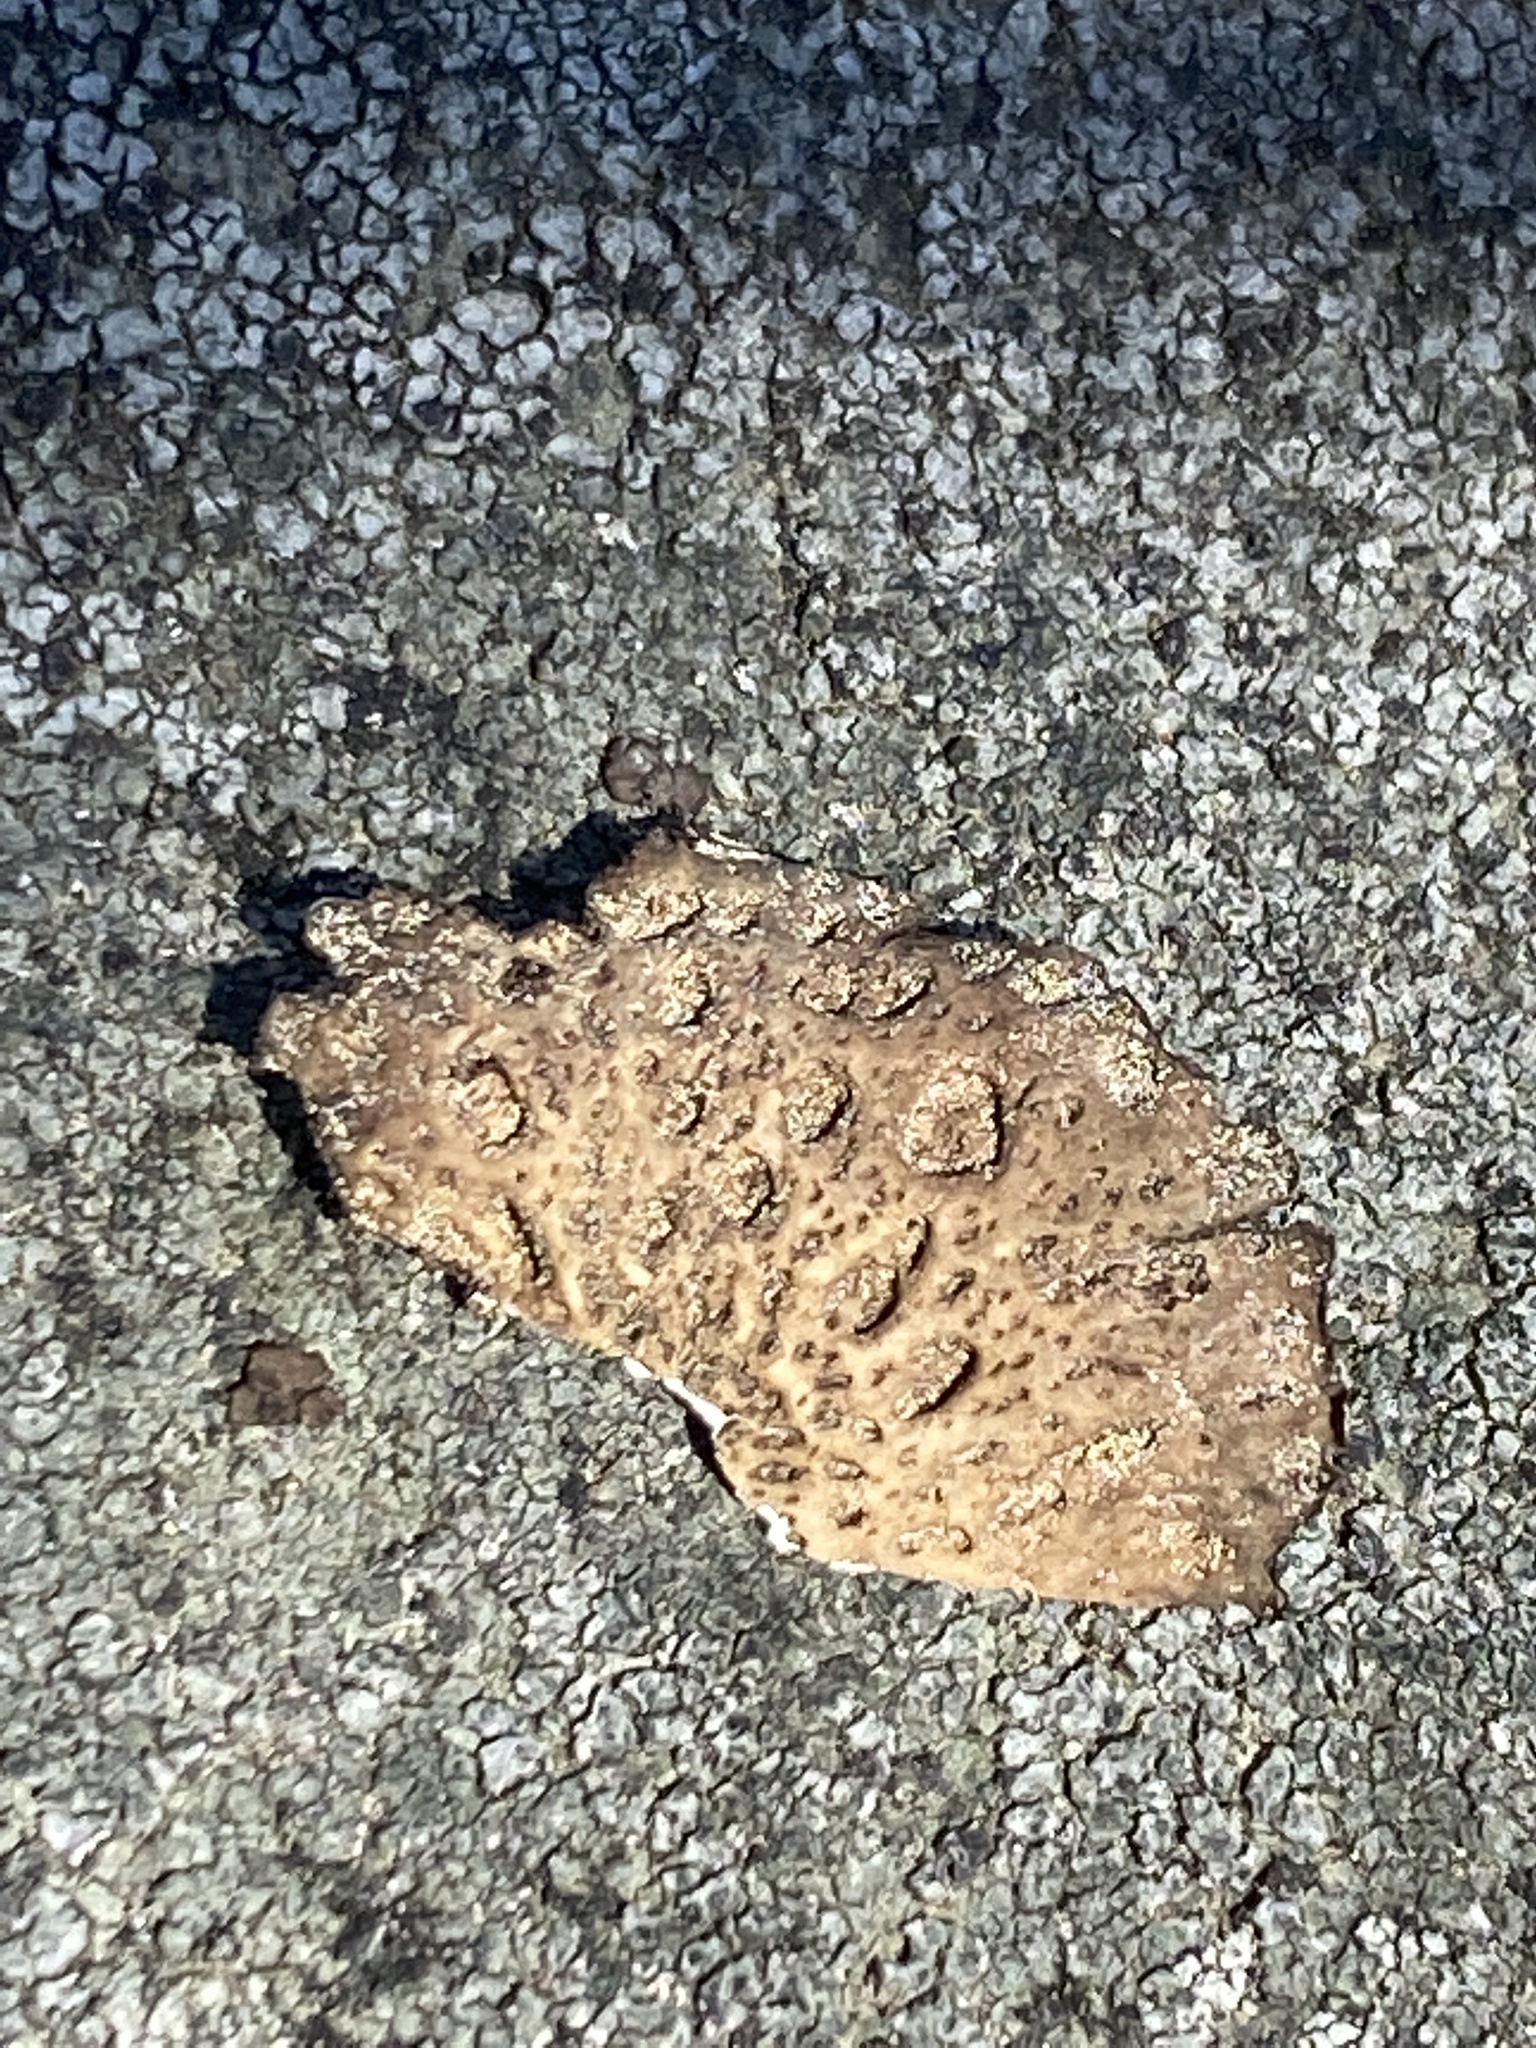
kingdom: Fungi
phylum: Ascomycota
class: Lecanoromycetes
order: Umbilicariales
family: Umbilicariaceae
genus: Lasallia
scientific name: Lasallia papulosa
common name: Common toadskin lichen
